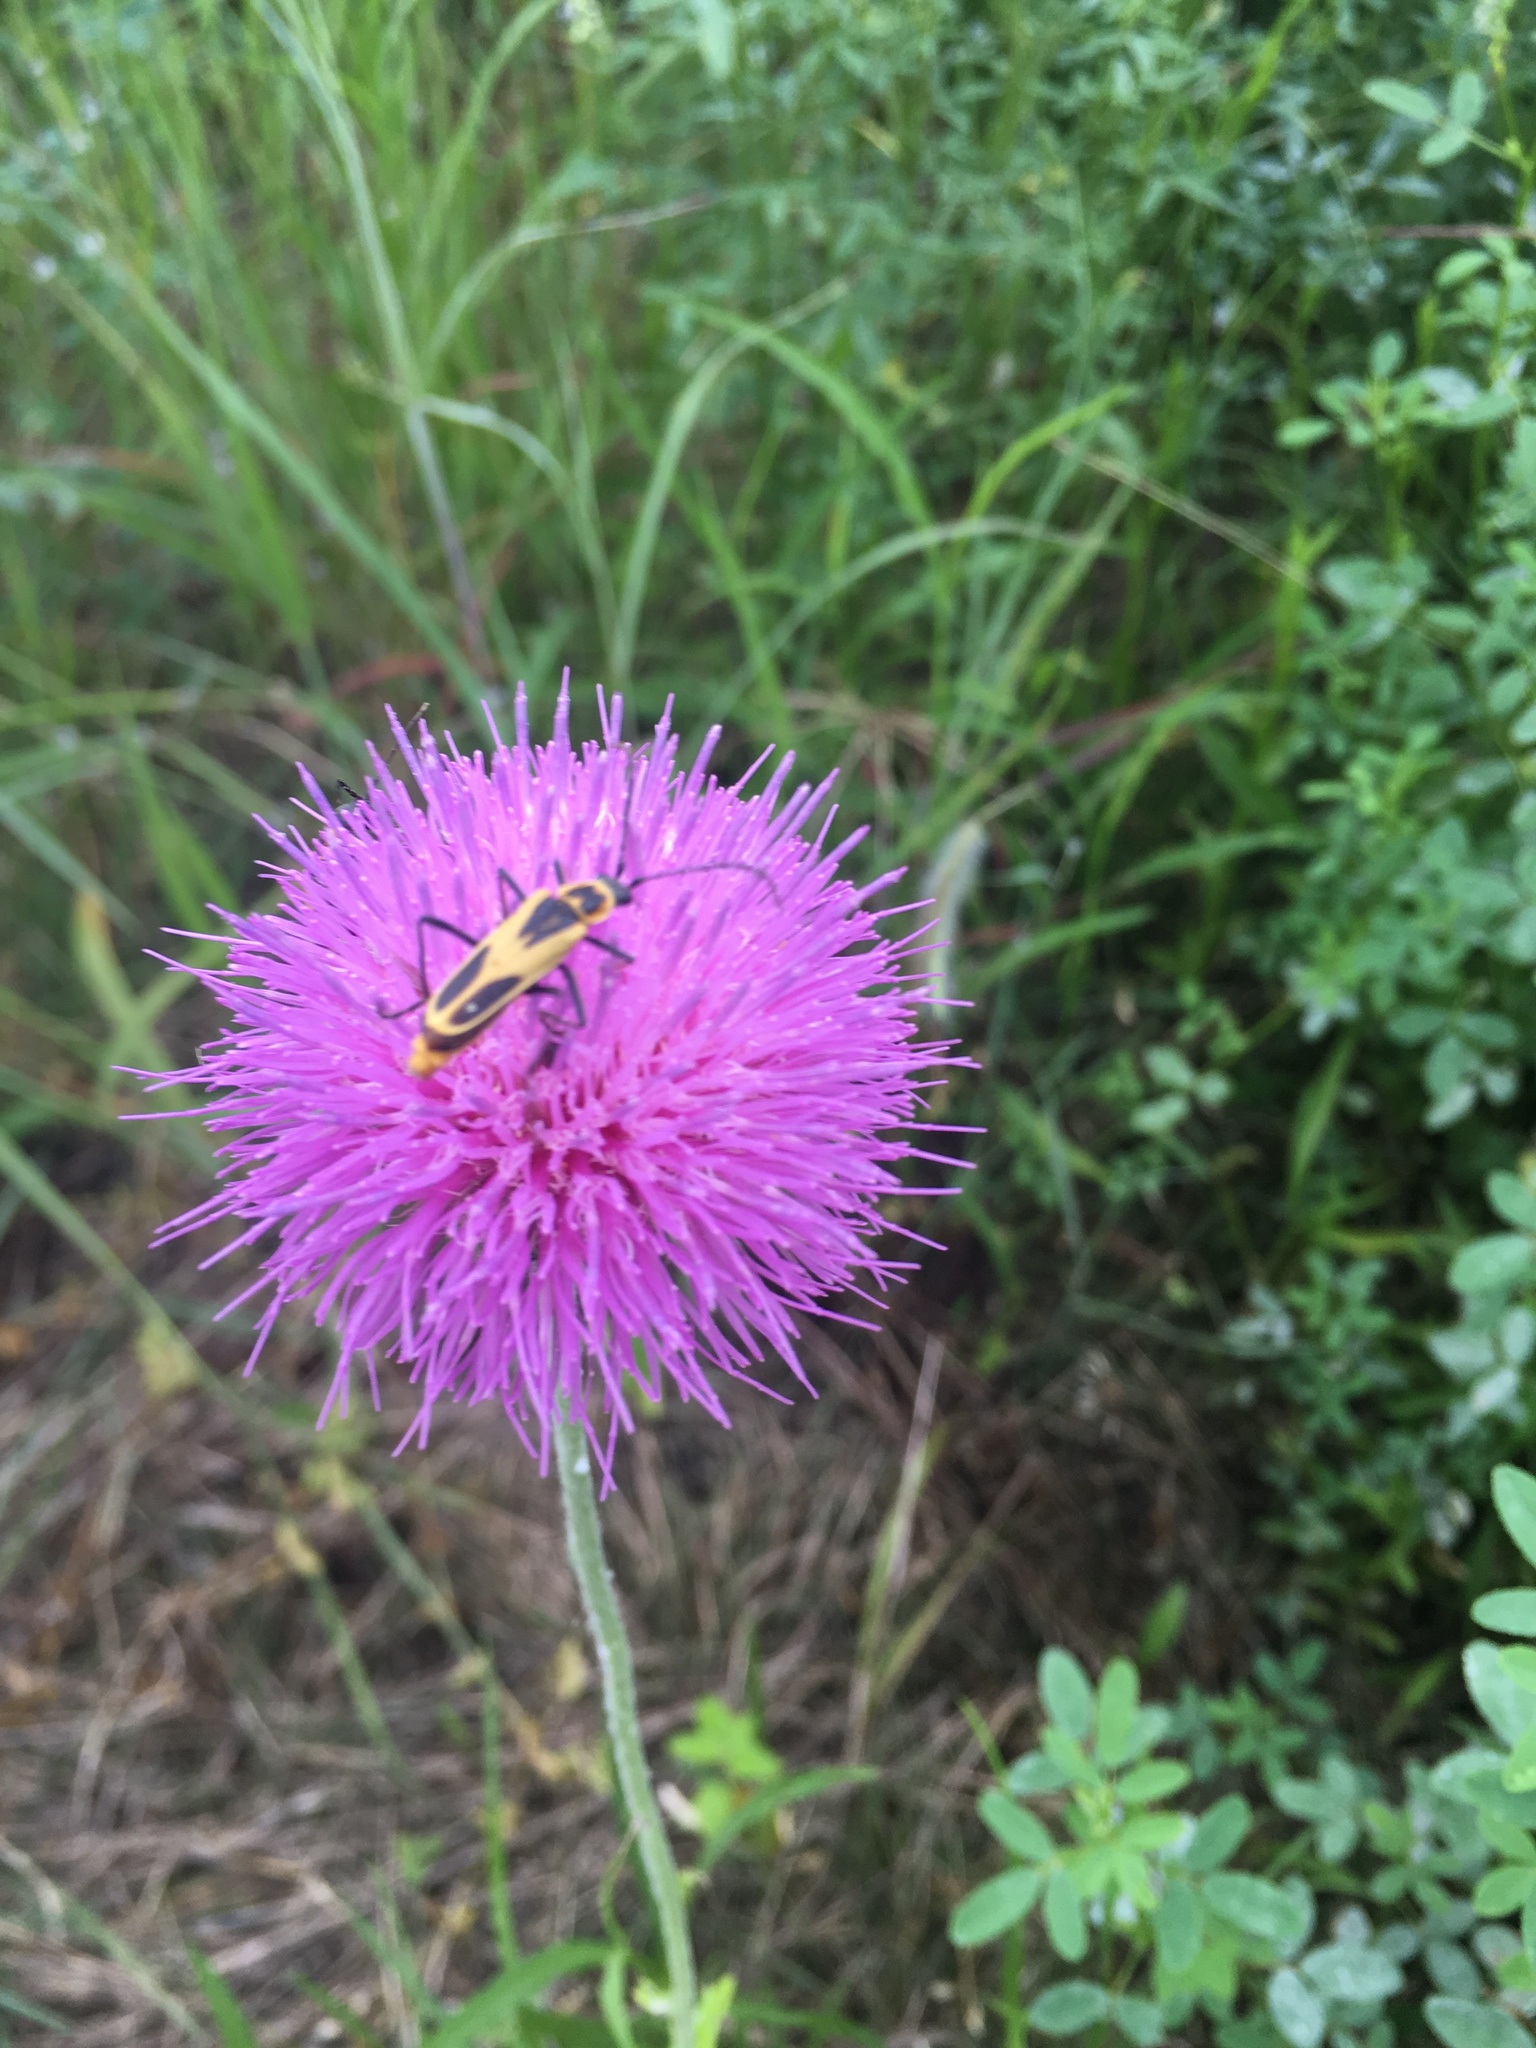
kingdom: Animalia
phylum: Arthropoda
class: Insecta
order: Coleoptera
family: Cantharidae
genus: Chauliognathus
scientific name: Chauliognathus scutellaris
